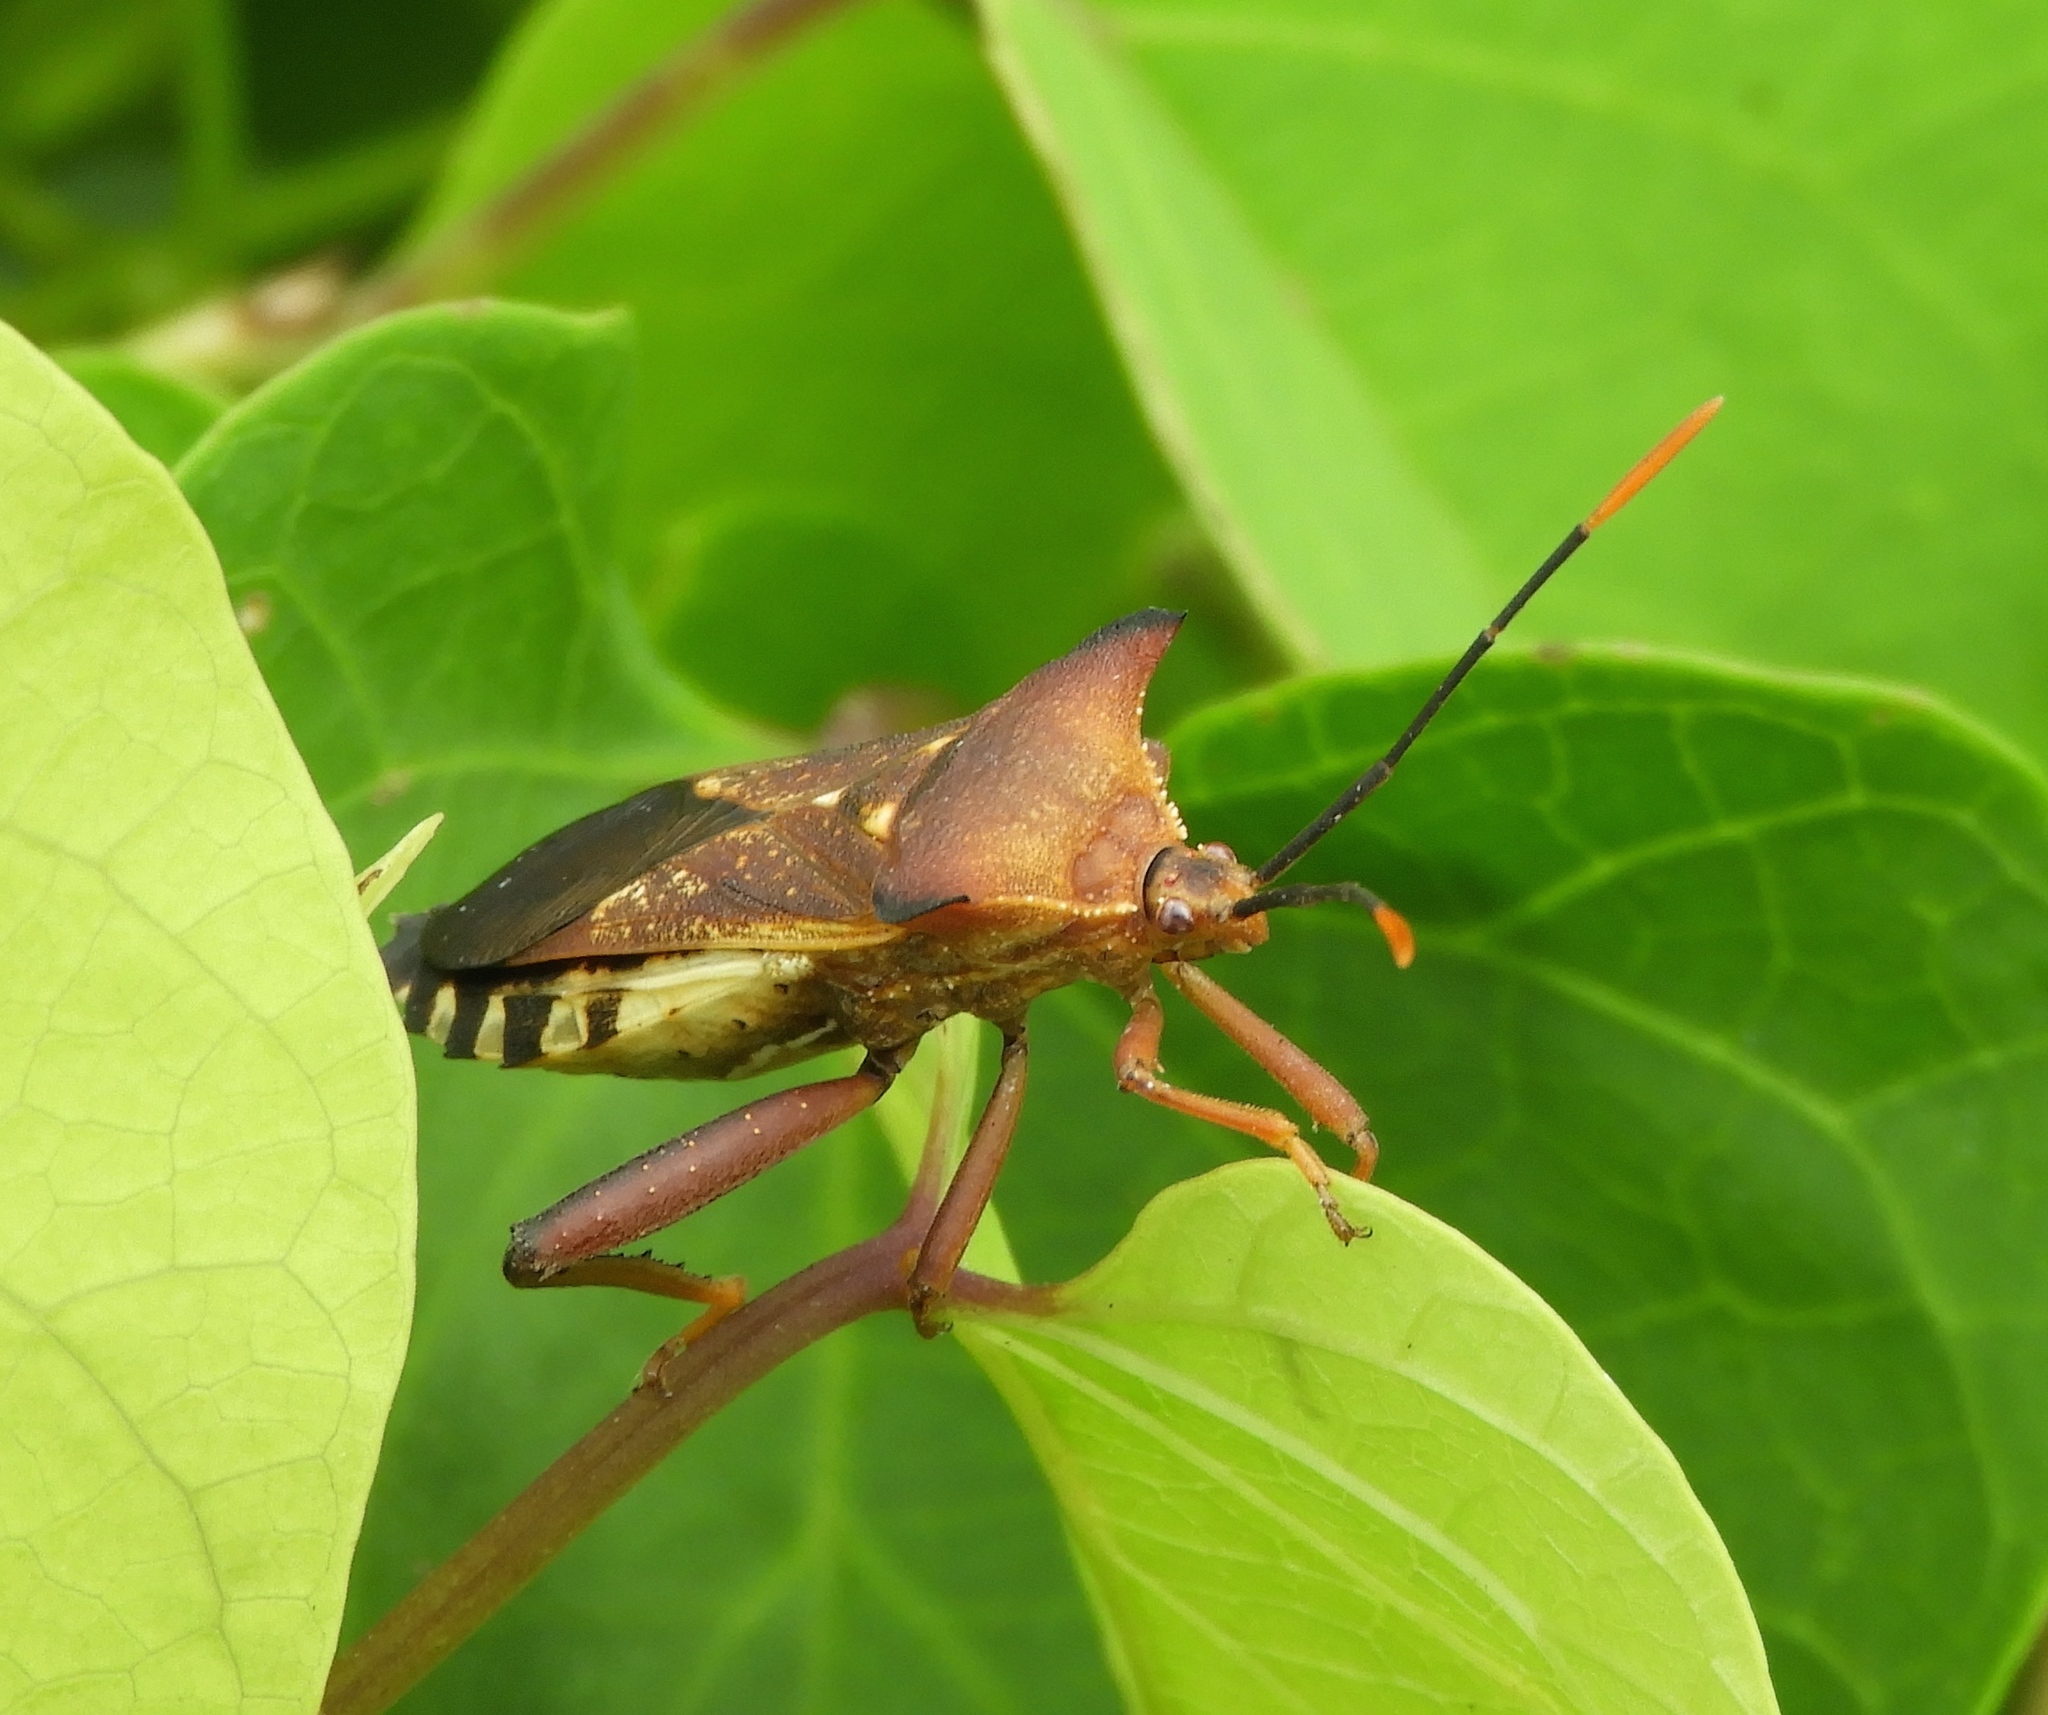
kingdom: Animalia
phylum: Arthropoda
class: Insecta
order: Hemiptera
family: Coreidae
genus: Mozena
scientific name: Mozena lunata
